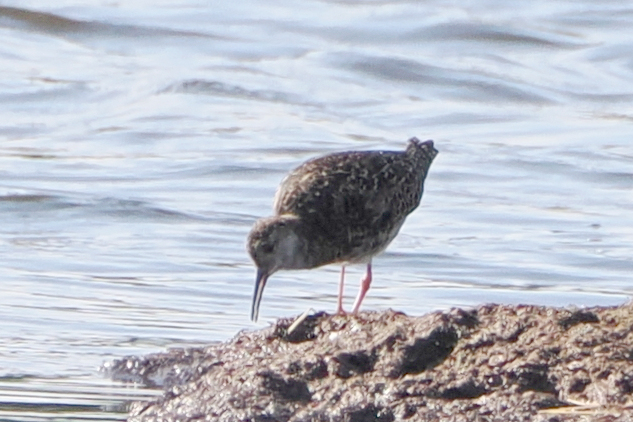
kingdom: Animalia
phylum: Chordata
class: Aves
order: Charadriiformes
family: Scolopacidae
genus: Calidris
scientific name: Calidris pugnax
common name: Ruff
